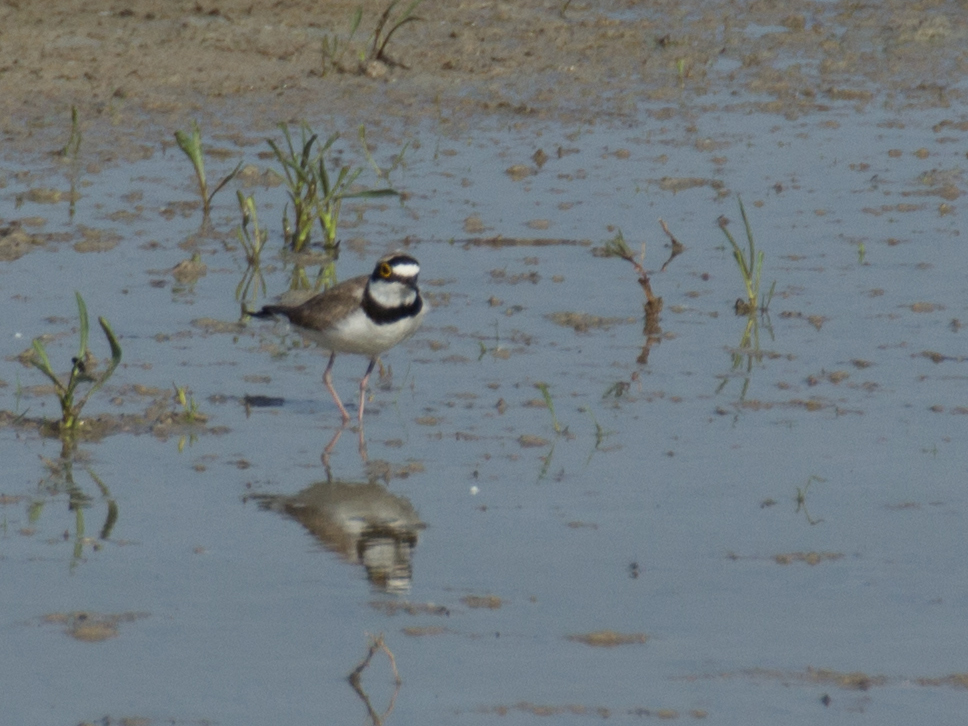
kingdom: Animalia
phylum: Chordata
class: Aves
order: Charadriiformes
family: Charadriidae
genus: Charadrius
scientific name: Charadrius dubius
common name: Little ringed plover
